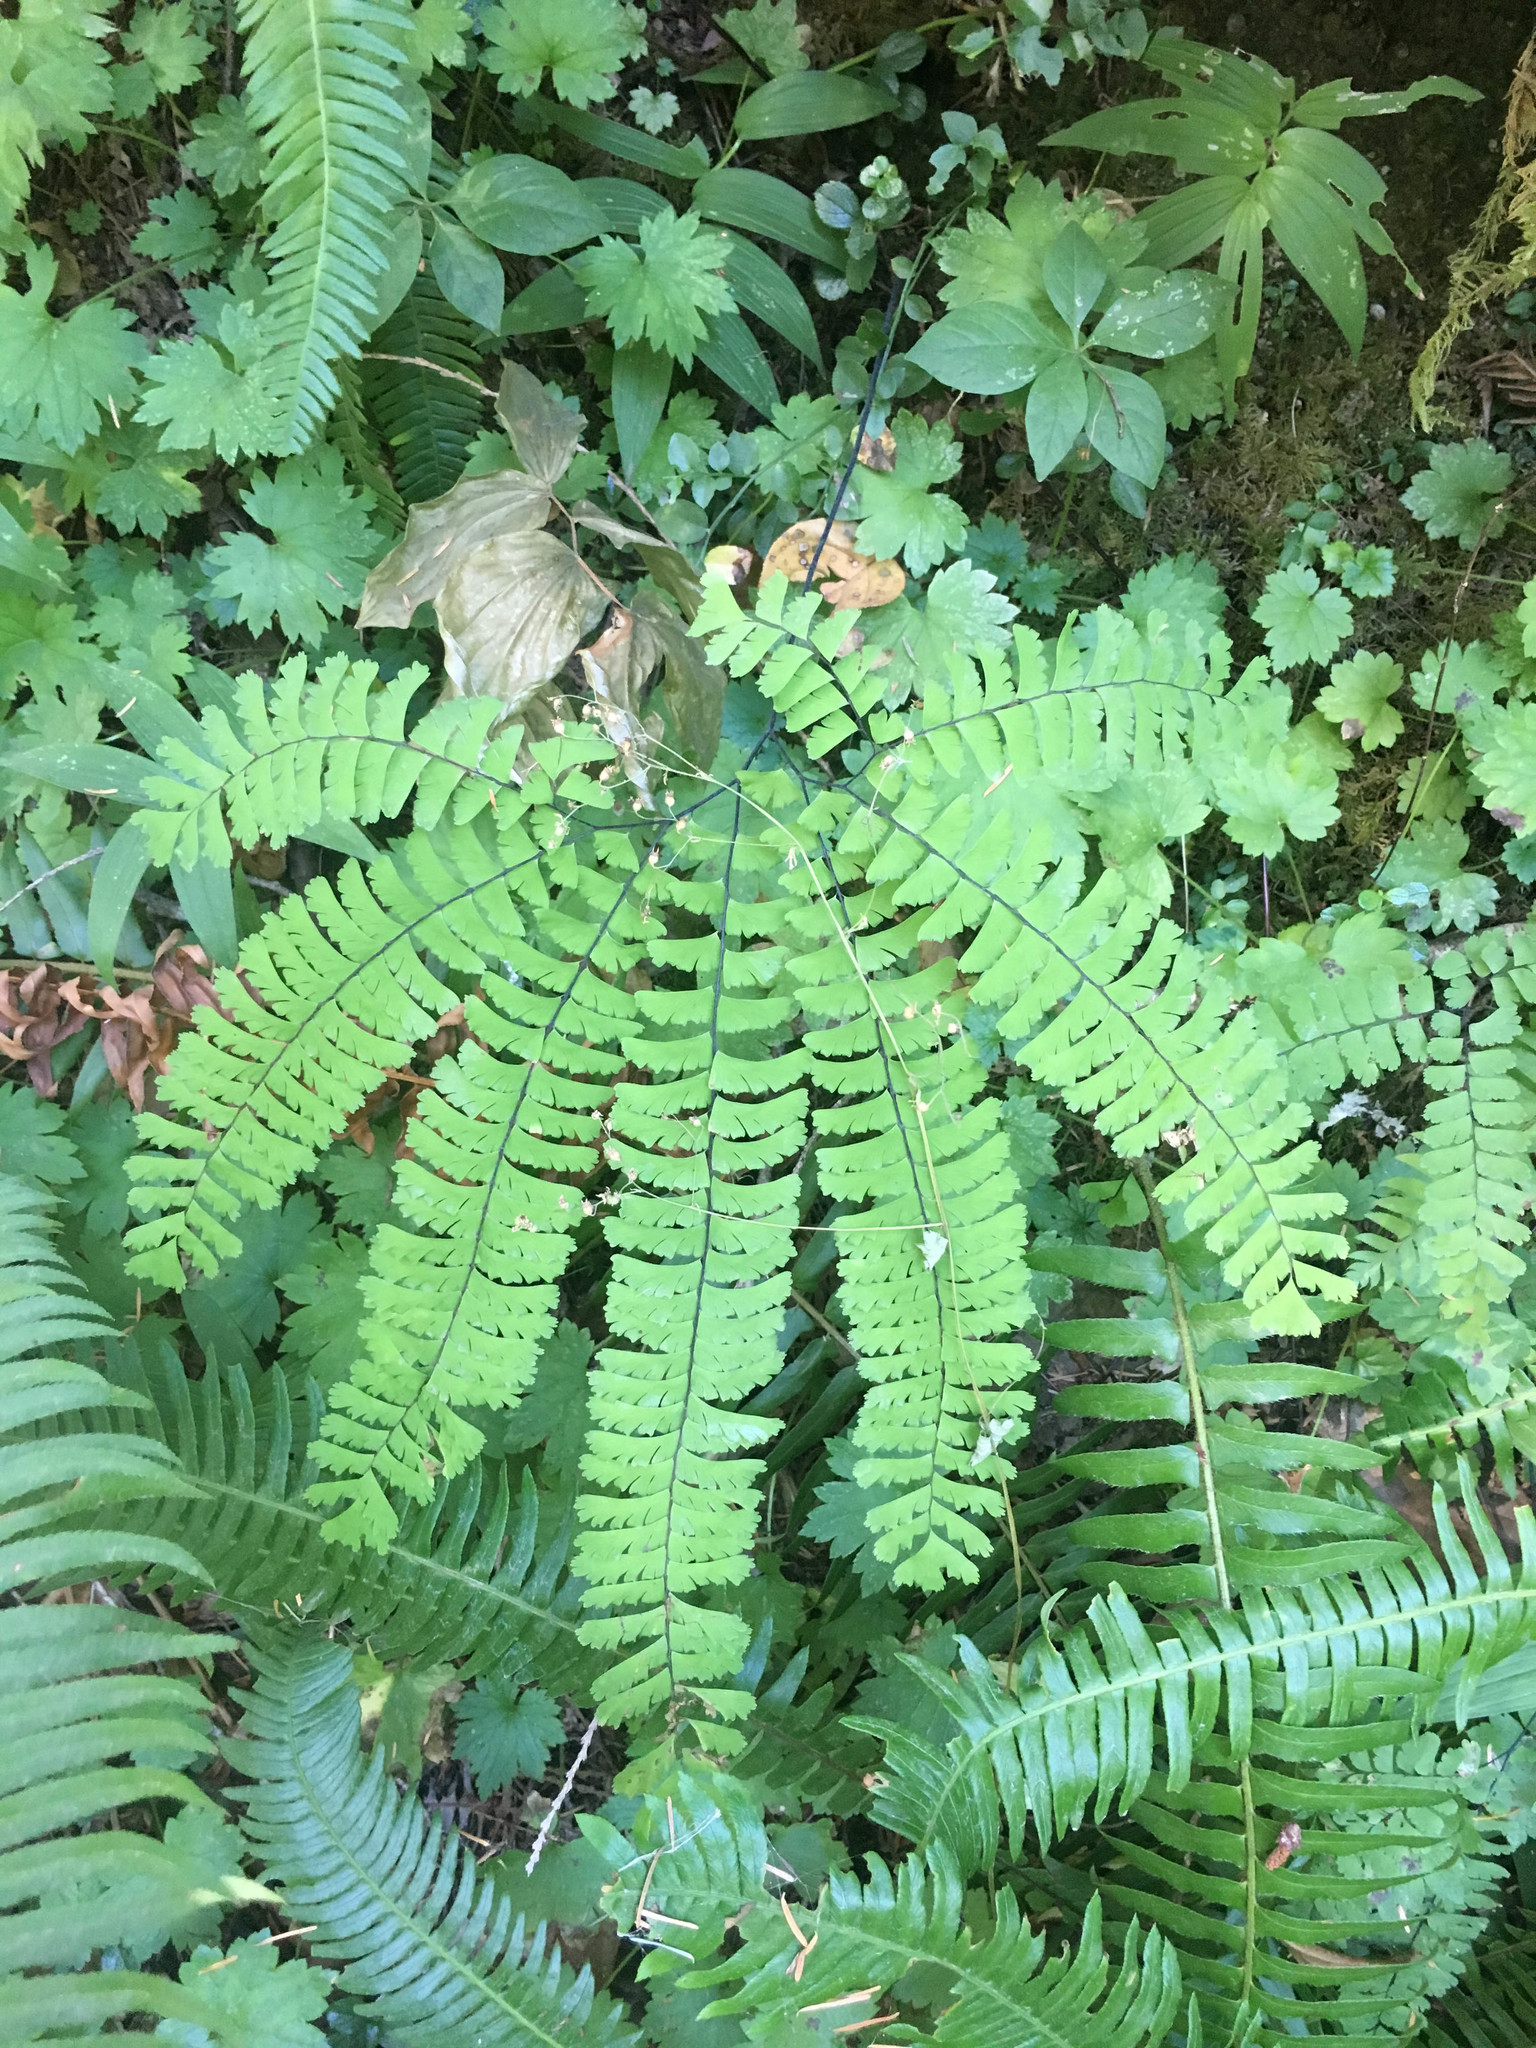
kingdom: Plantae
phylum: Tracheophyta
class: Polypodiopsida
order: Polypodiales
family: Pteridaceae
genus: Adiantum
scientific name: Adiantum aleuticum
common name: Aleutian maidenhair fern
